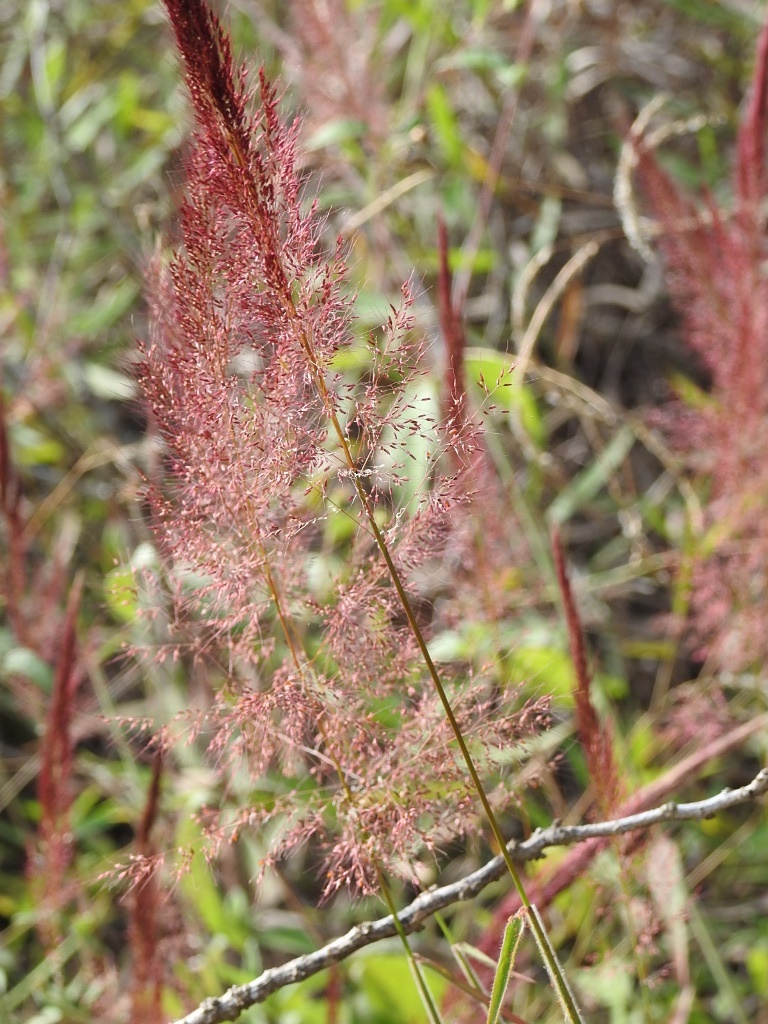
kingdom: Plantae
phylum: Tracheophyta
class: Liliopsida
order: Poales
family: Poaceae
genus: Melinis
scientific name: Melinis minutiflora
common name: Molassesgrass
